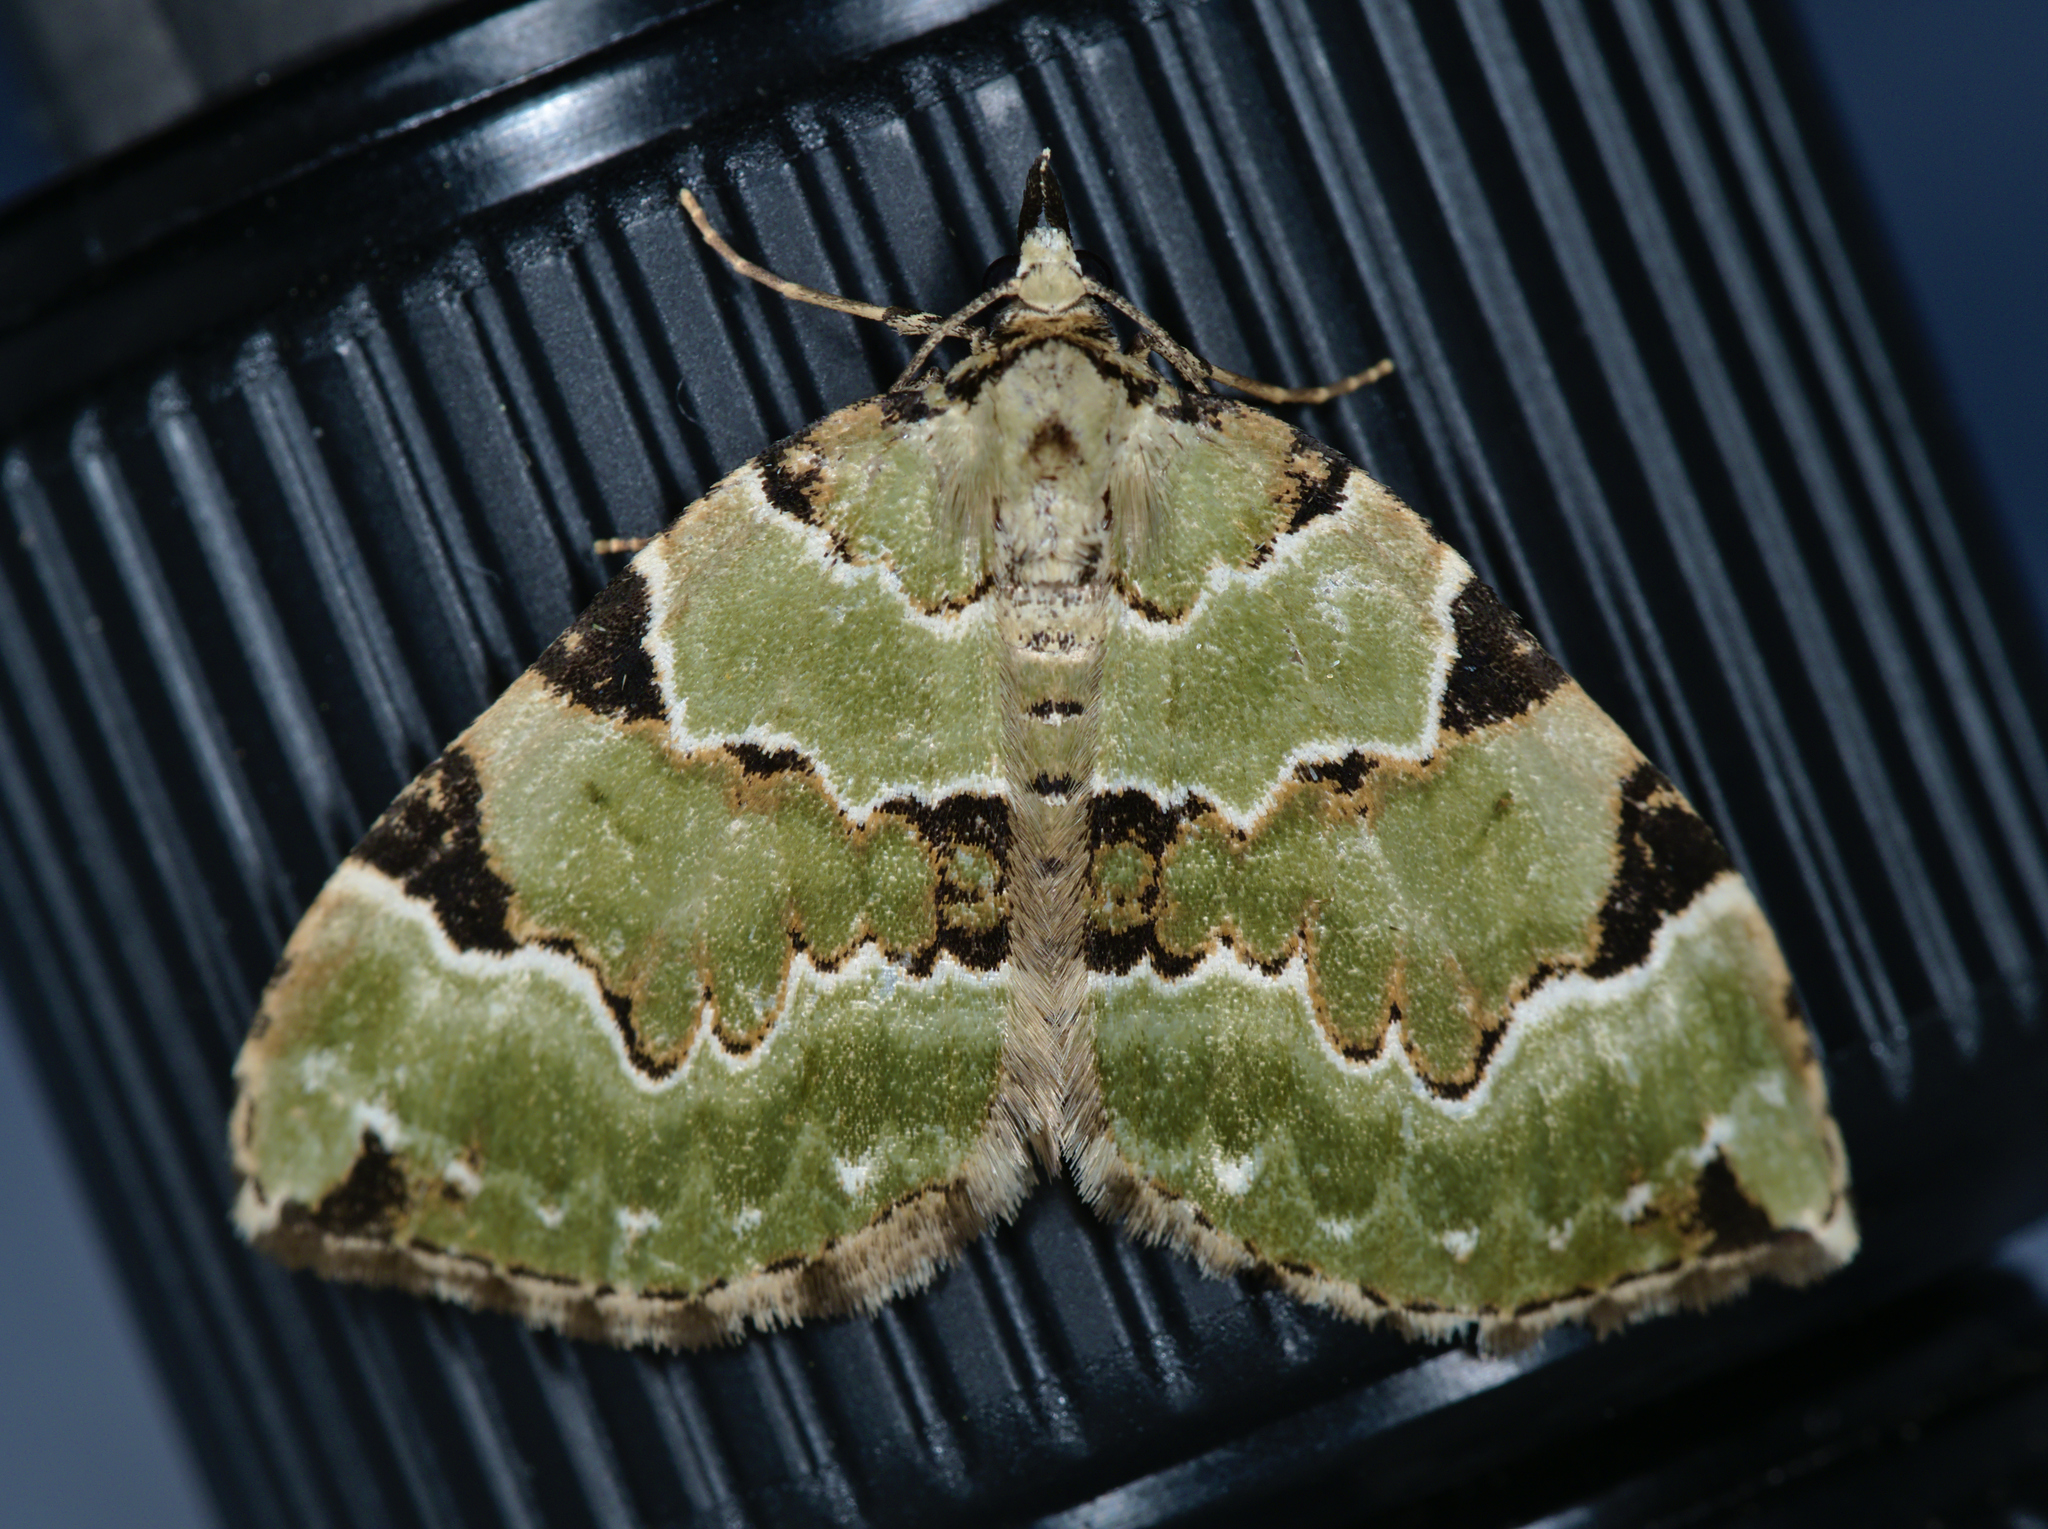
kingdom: Animalia
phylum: Arthropoda
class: Insecta
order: Lepidoptera
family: Geometridae
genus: Colostygia
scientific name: Colostygia pectinataria
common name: Green carpet
